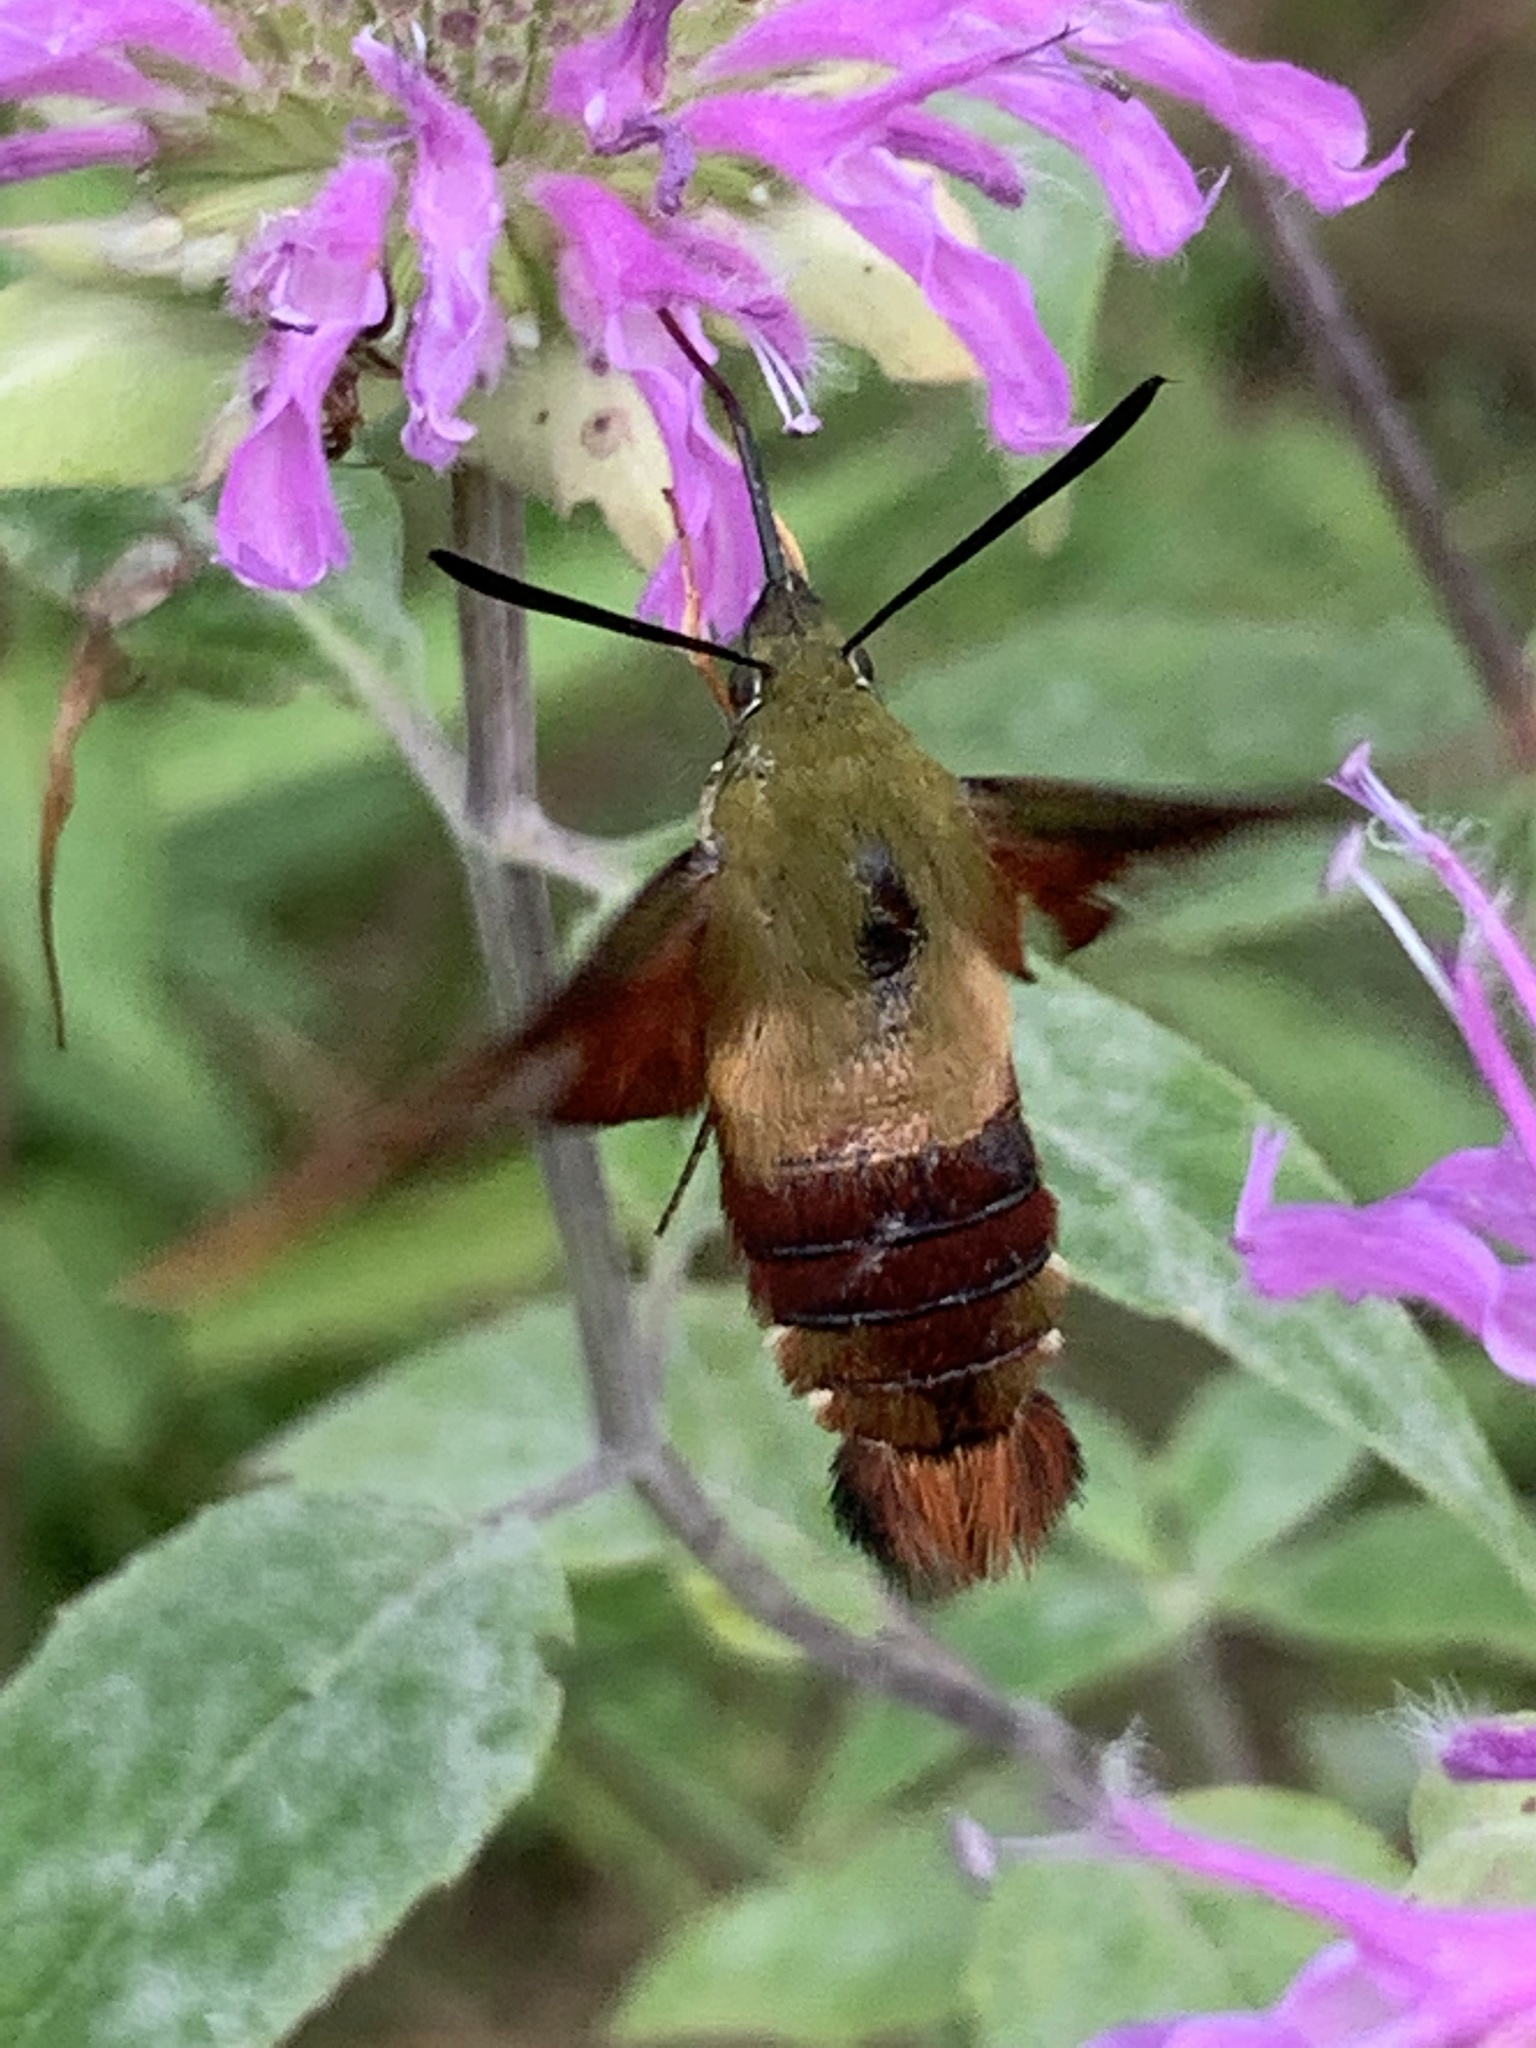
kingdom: Animalia
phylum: Arthropoda
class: Insecta
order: Lepidoptera
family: Sphingidae
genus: Hemaris
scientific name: Hemaris thysbe
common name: Common clear-wing
